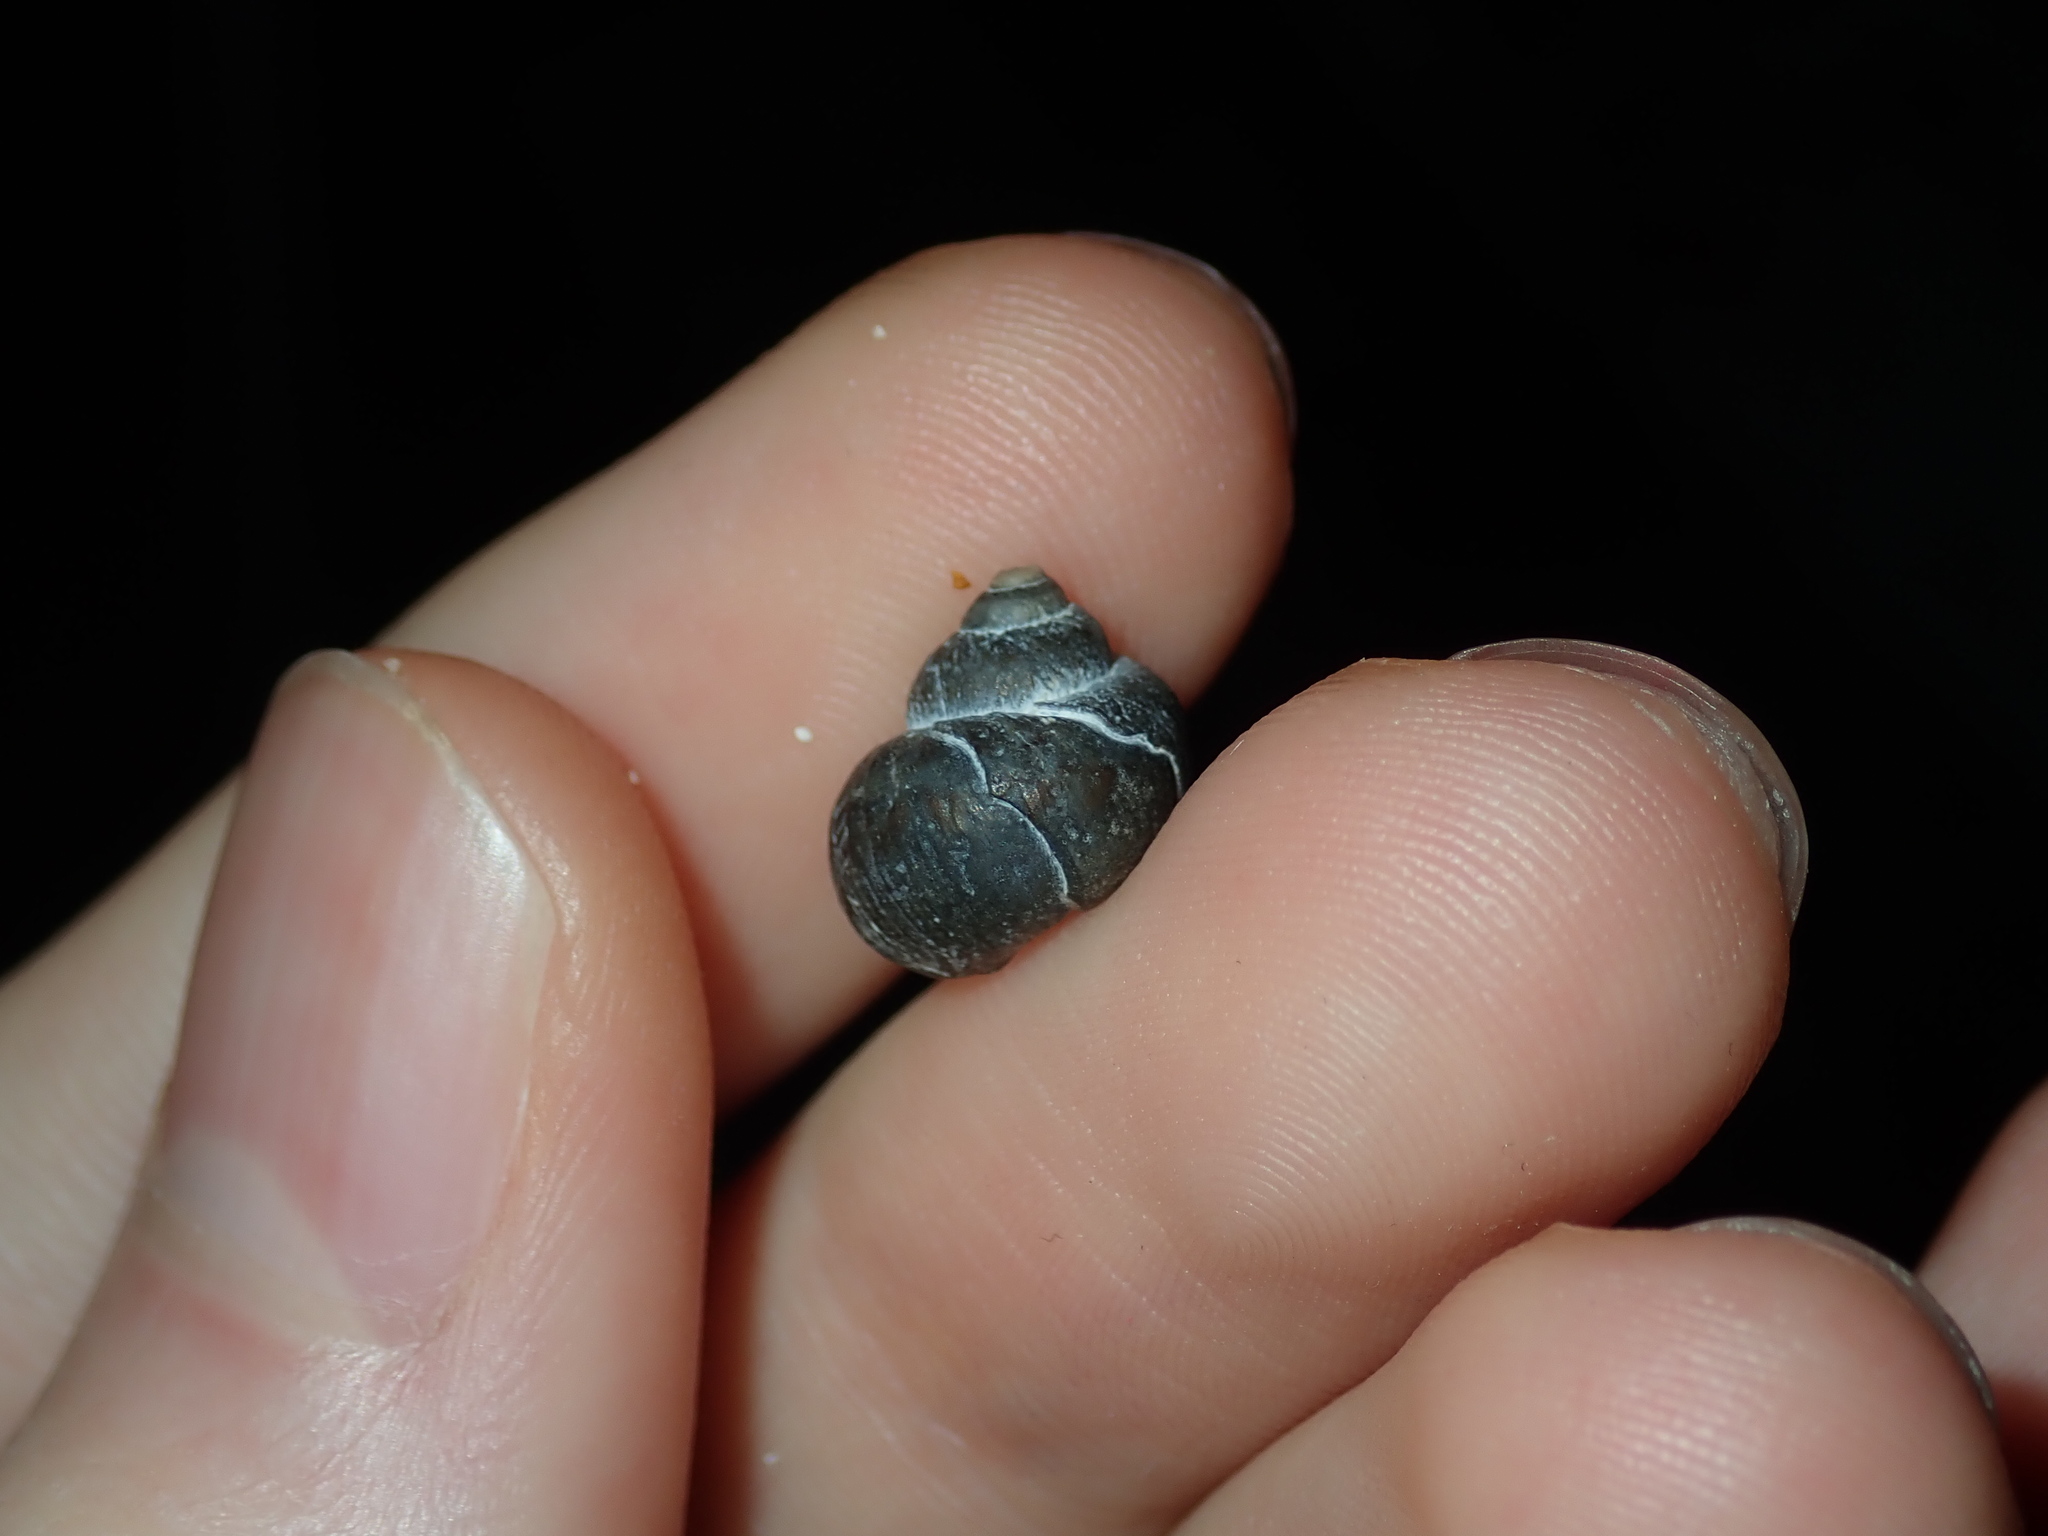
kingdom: Animalia
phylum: Mollusca
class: Gastropoda
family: Amphibolidae
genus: Phallomedusa
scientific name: Phallomedusa solida
